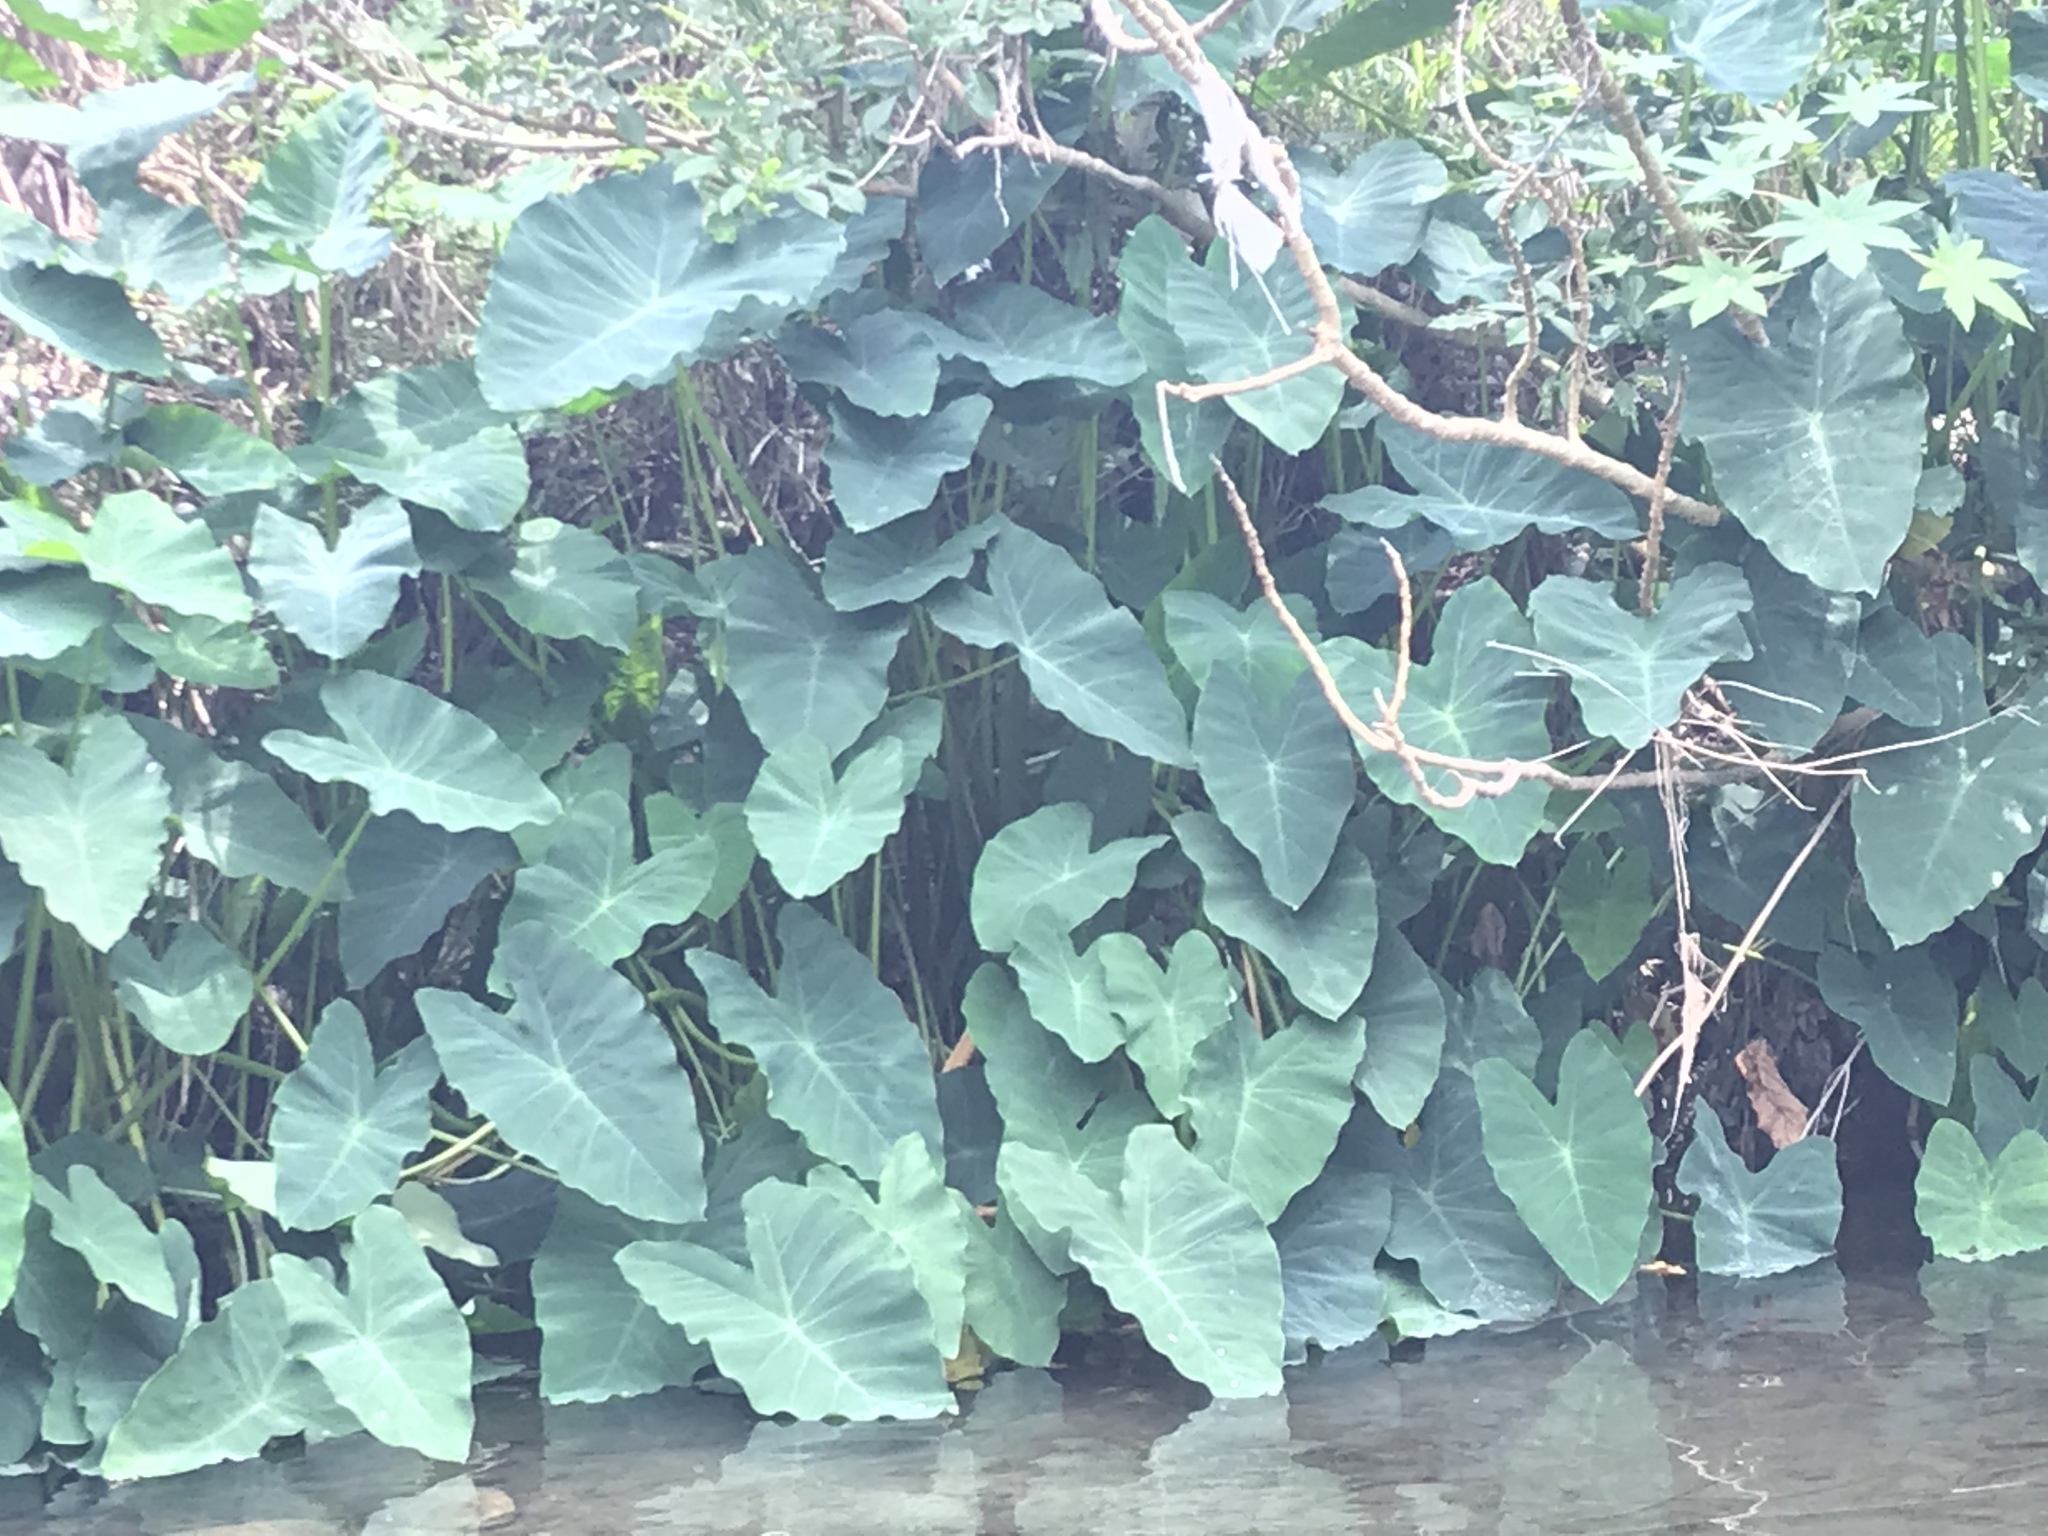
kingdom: Plantae
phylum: Tracheophyta
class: Liliopsida
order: Alismatales
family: Araceae
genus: Colocasia
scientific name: Colocasia esculenta
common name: Taro
